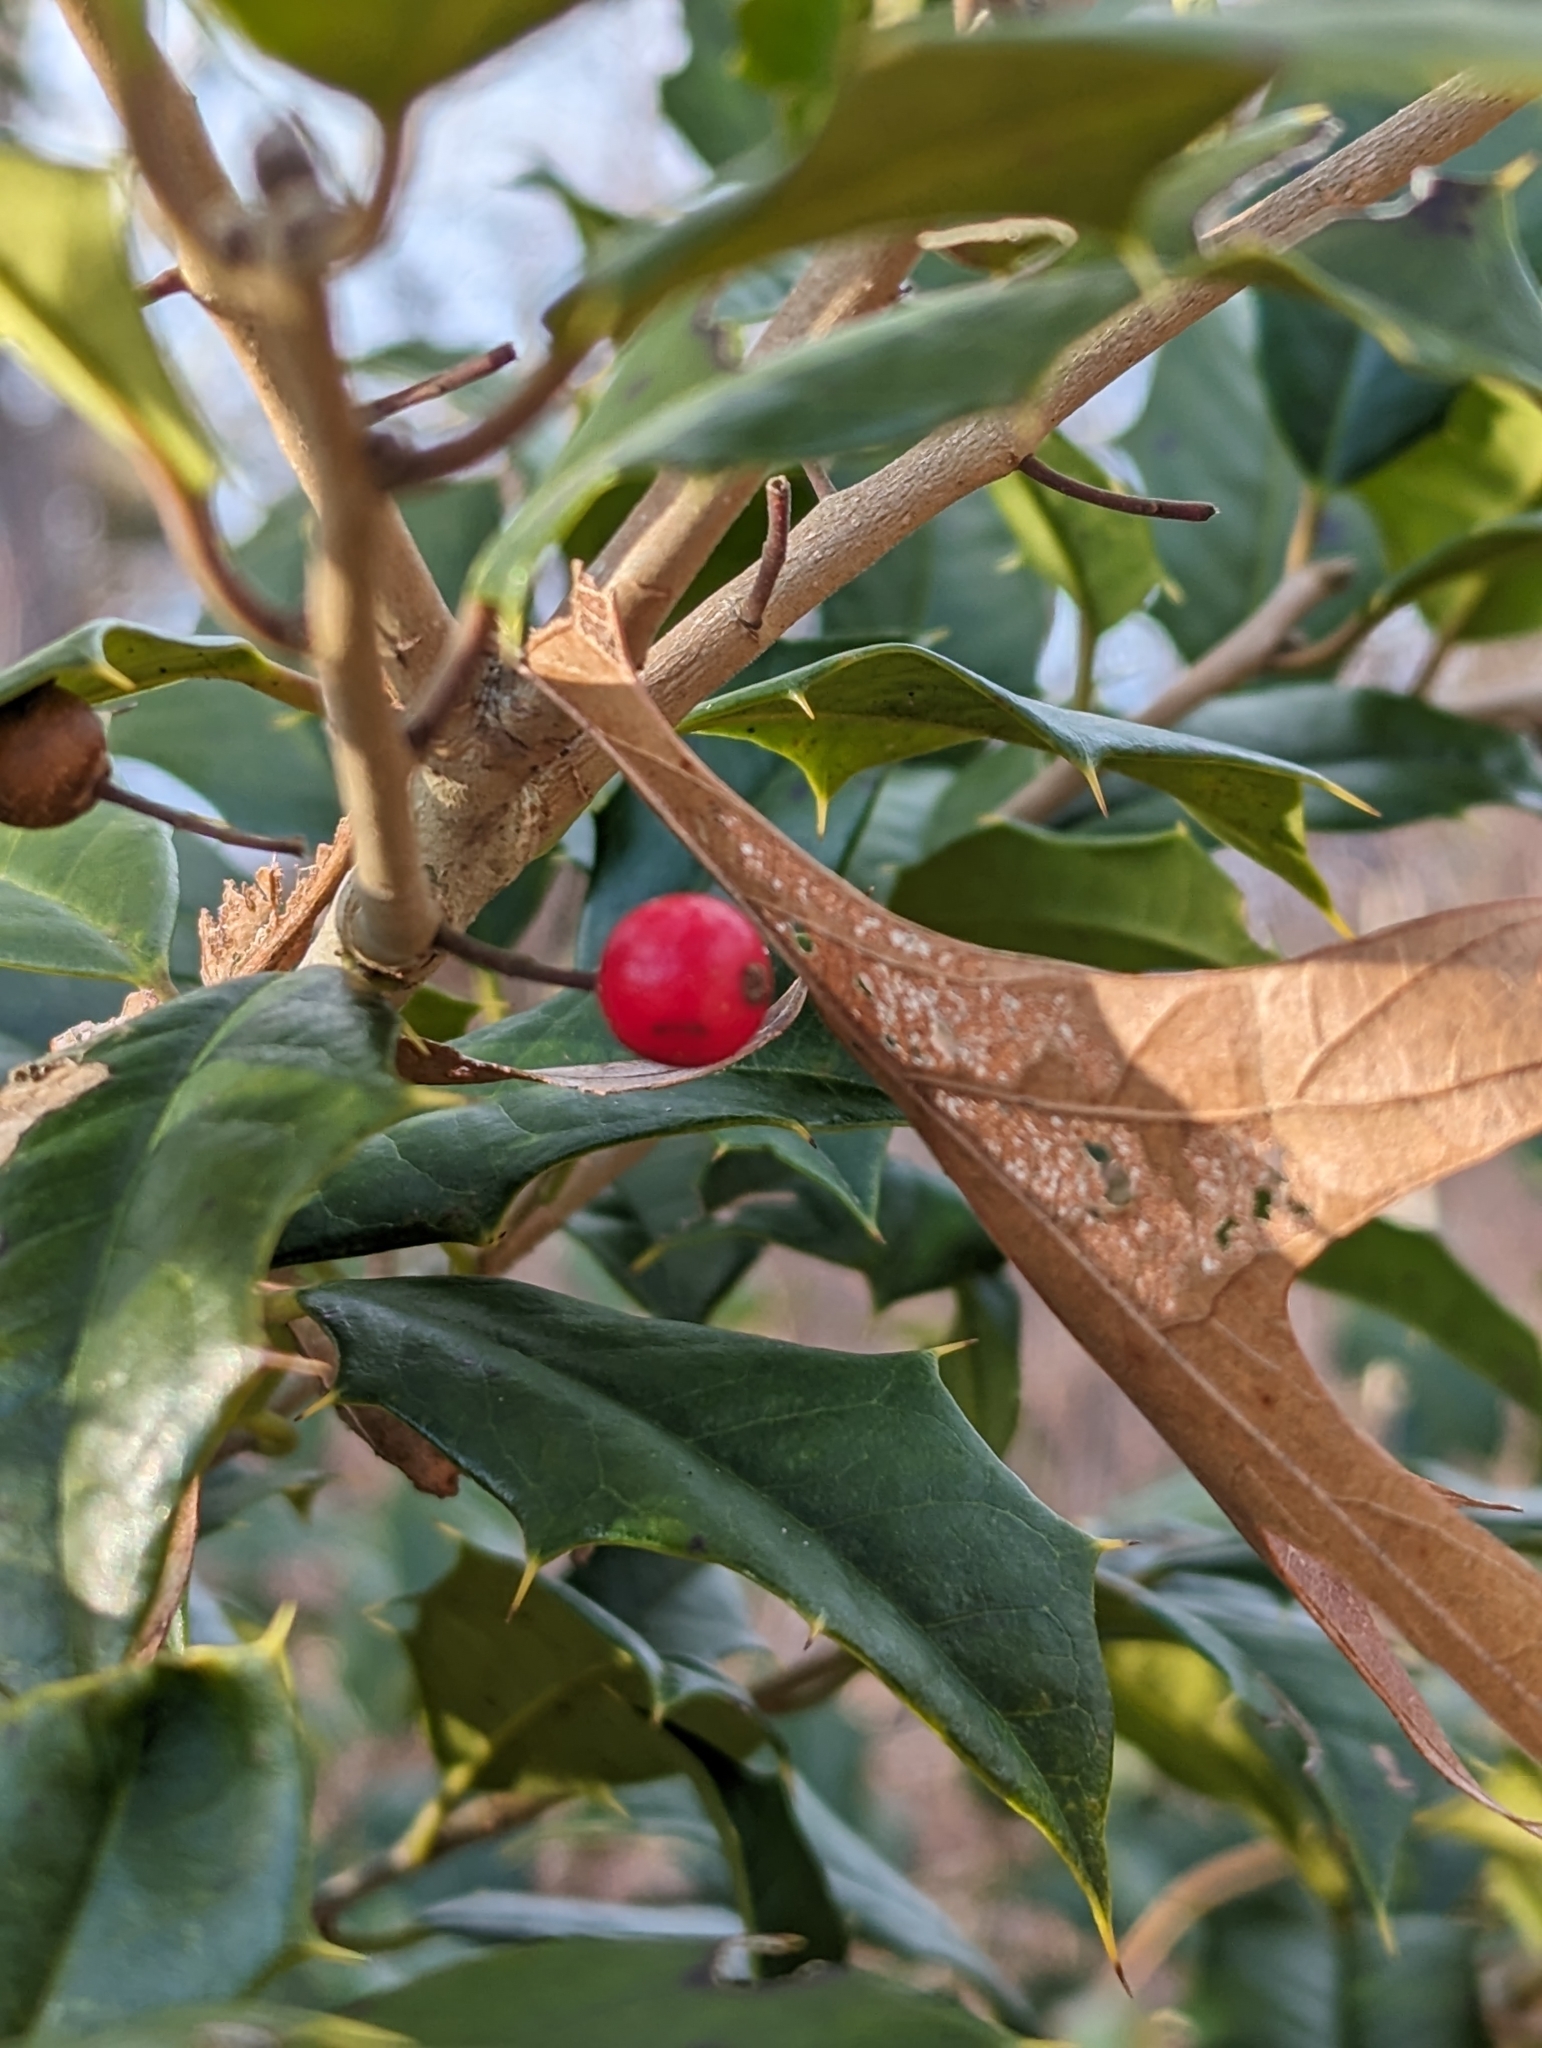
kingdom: Plantae
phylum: Tracheophyta
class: Magnoliopsida
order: Aquifoliales
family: Aquifoliaceae
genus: Ilex
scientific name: Ilex opaca
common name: American holly
